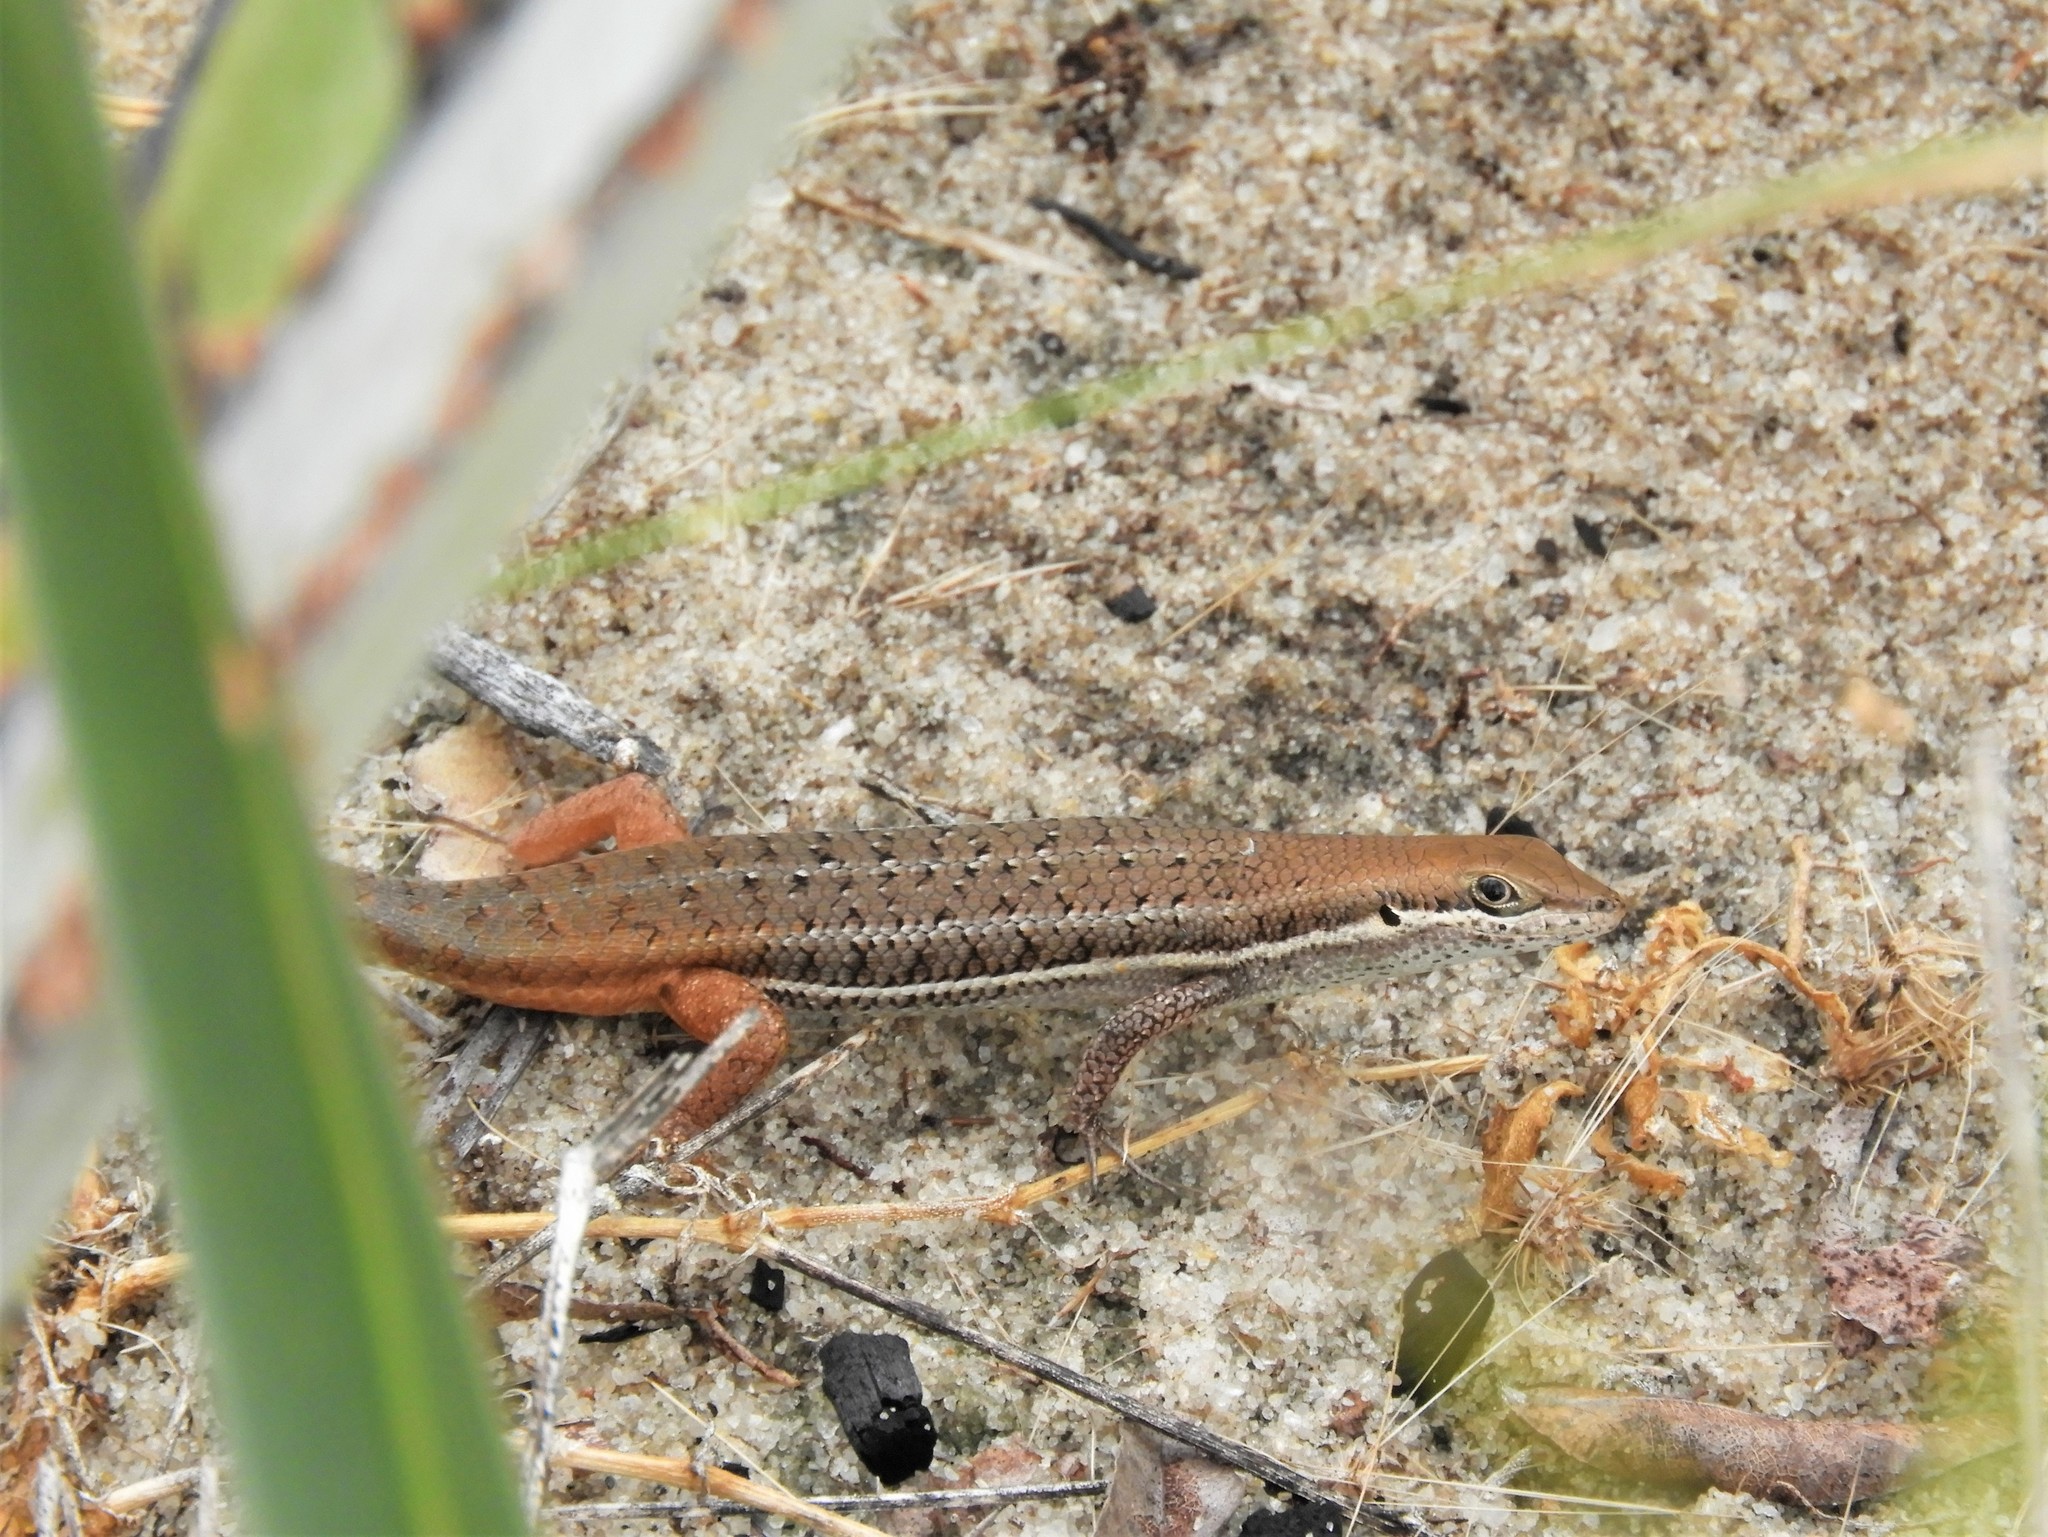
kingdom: Animalia
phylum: Chordata
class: Squamata
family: Scincidae
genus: Trachylepis
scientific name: Trachylepis varia
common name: Eastern variable skink
